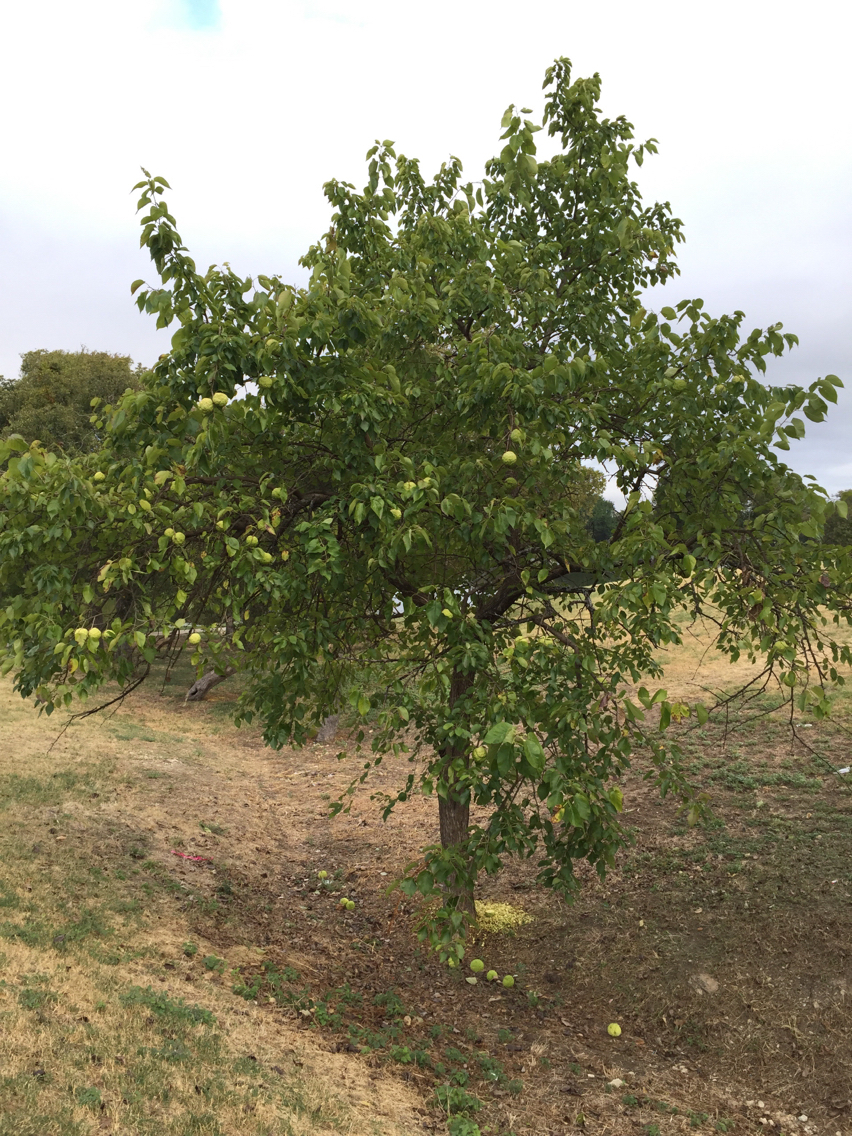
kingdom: Plantae
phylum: Tracheophyta
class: Magnoliopsida
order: Rosales
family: Moraceae
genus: Maclura
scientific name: Maclura pomifera
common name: Osage-orange
